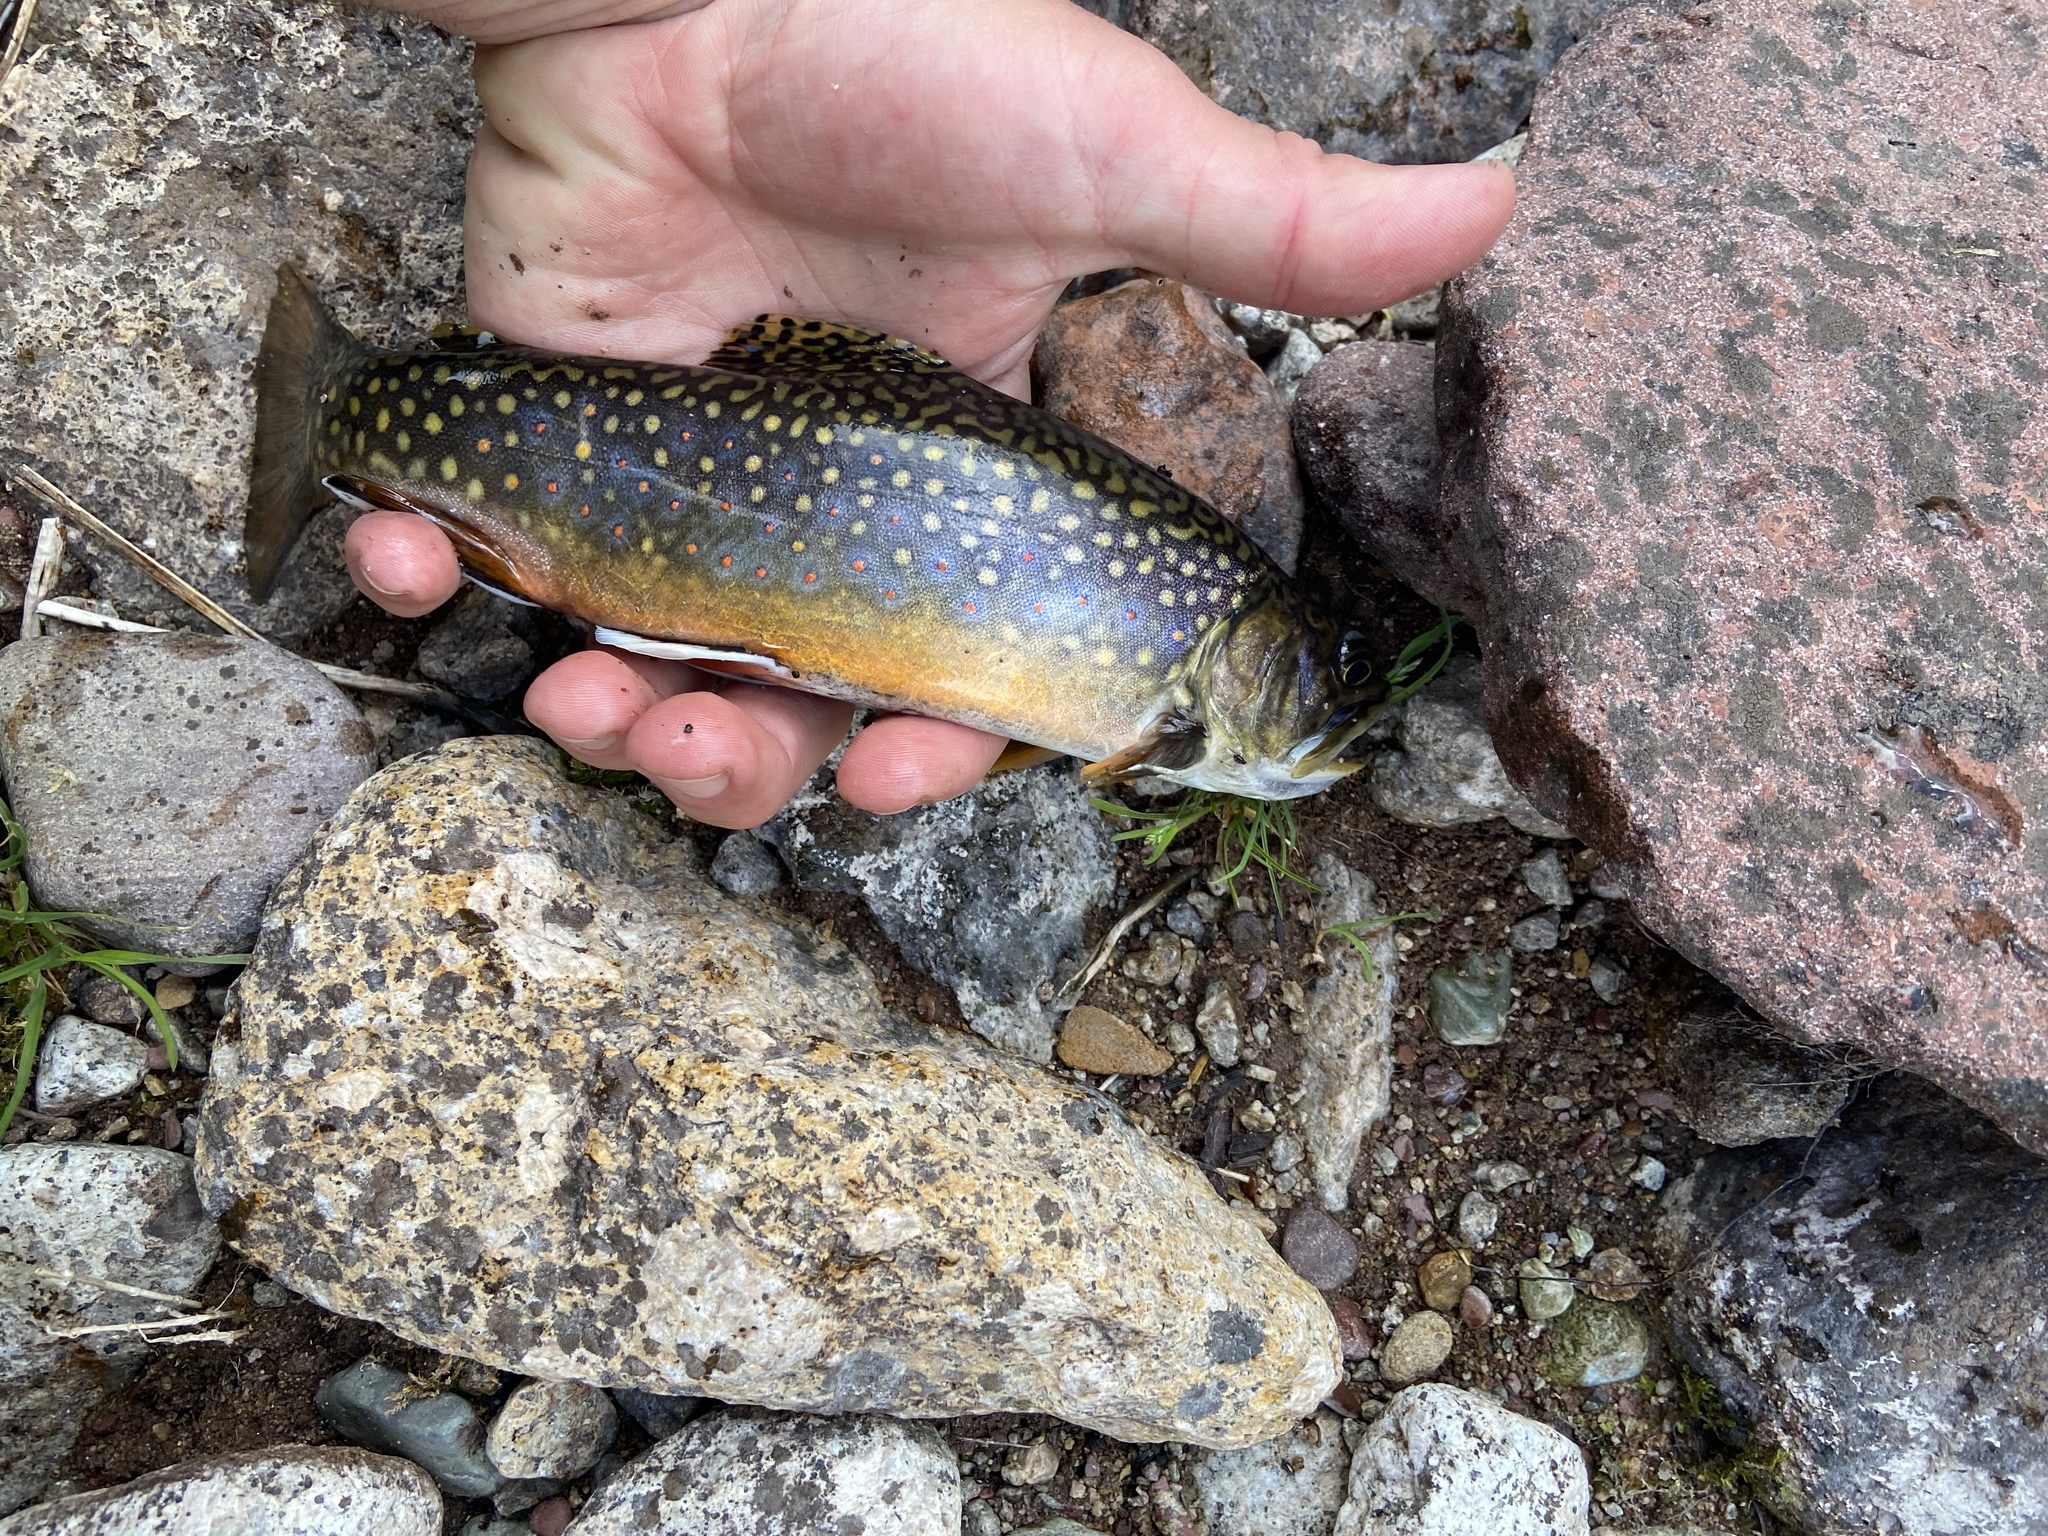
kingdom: Animalia
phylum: Chordata
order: Salmoniformes
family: Salmonidae
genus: Salvelinus
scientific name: Salvelinus fontinalis
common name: Brook trout
